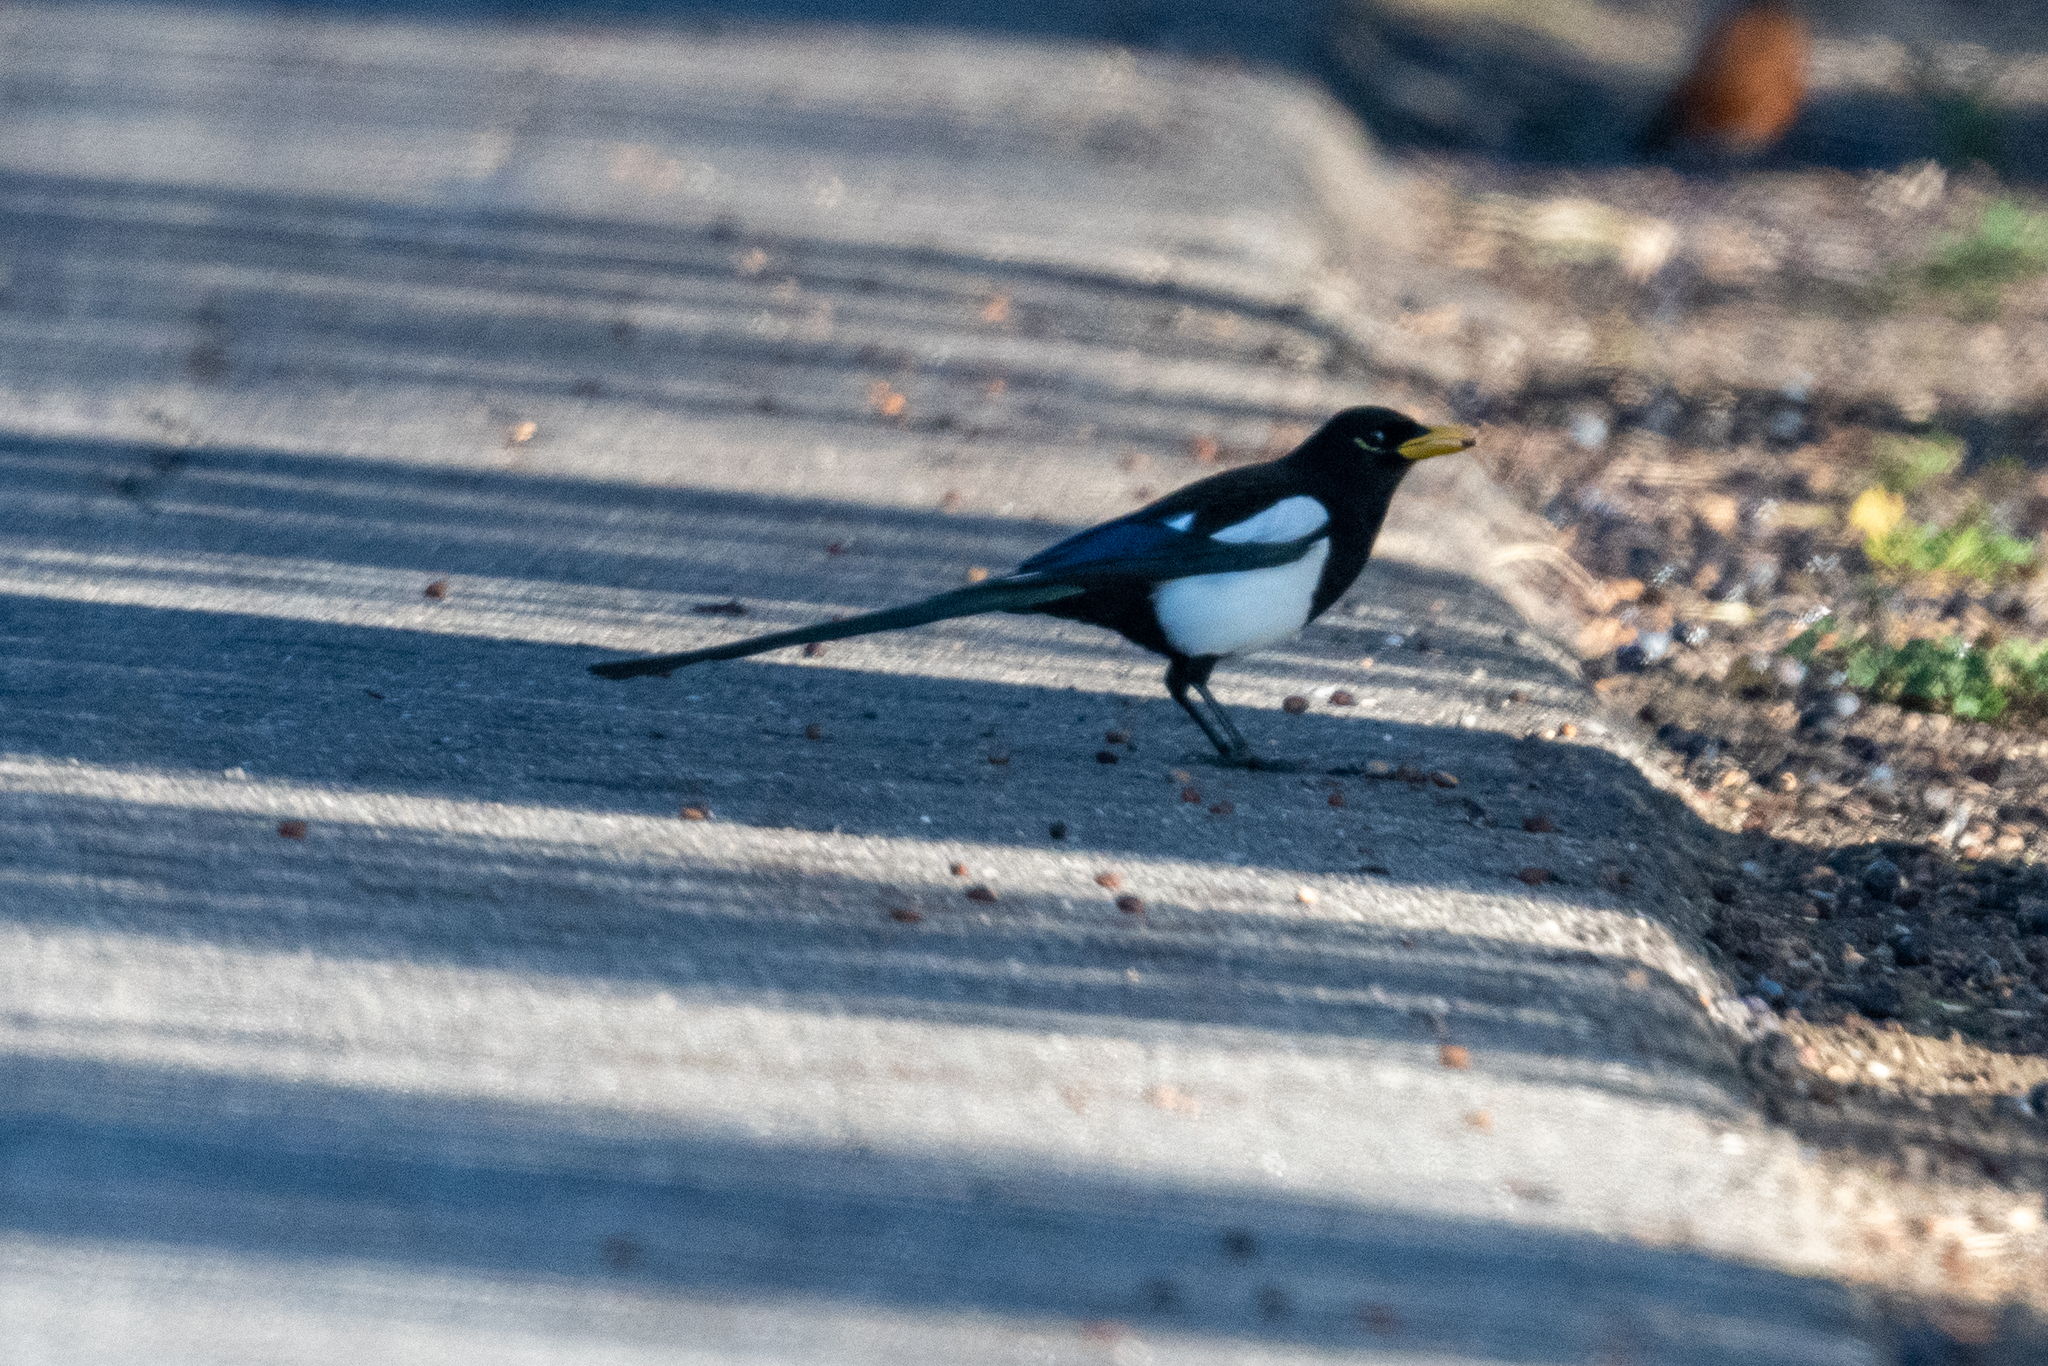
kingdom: Animalia
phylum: Chordata
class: Aves
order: Passeriformes
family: Corvidae
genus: Pica
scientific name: Pica nuttalli
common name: Yellow-billed magpie
